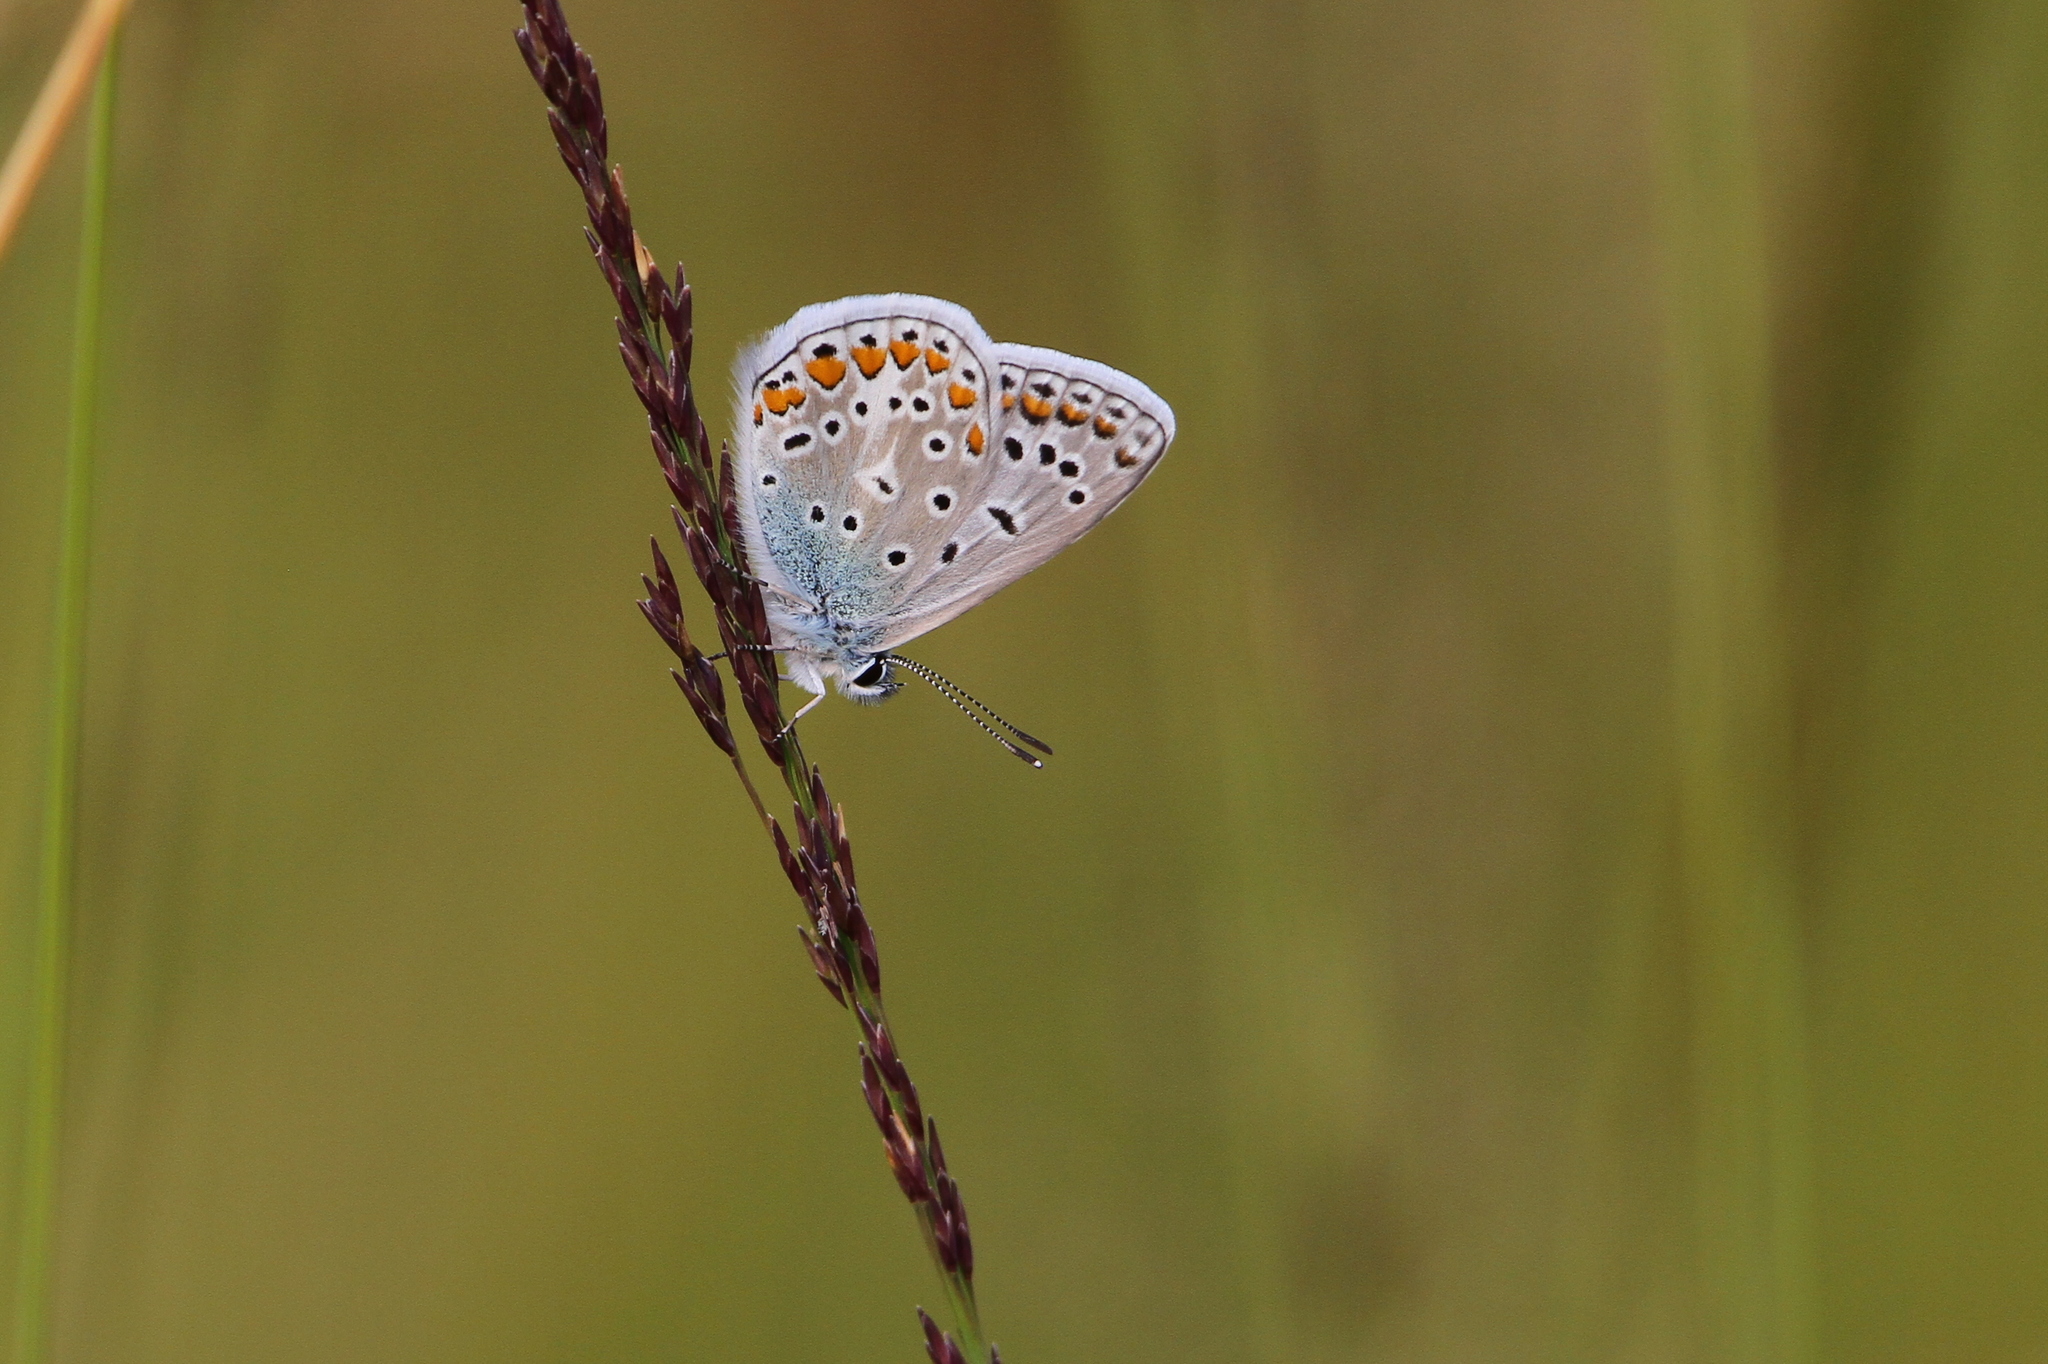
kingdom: Animalia
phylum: Arthropoda
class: Insecta
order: Lepidoptera
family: Lycaenidae
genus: Polyommatus
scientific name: Polyommatus icarus
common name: Common blue
